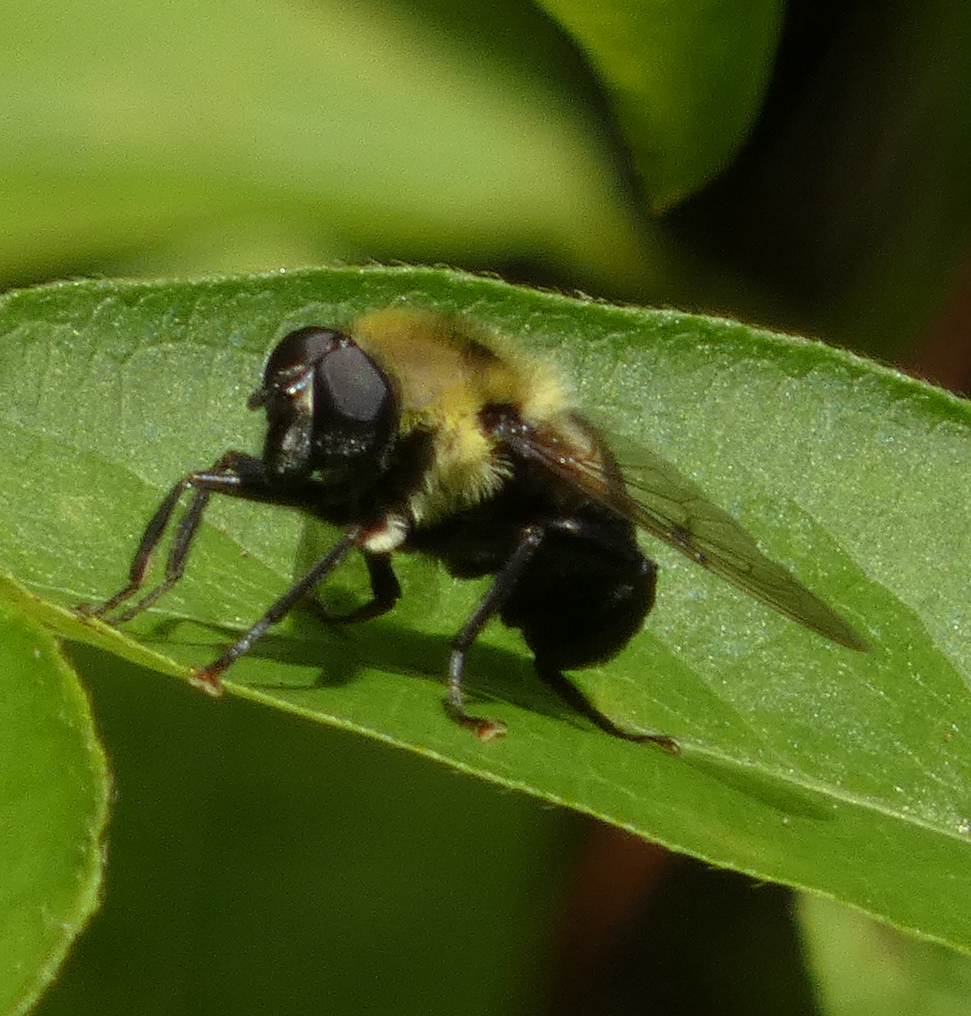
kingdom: Animalia
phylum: Arthropoda
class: Insecta
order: Diptera
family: Syrphidae
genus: Imatisma
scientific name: Imatisma posticata
